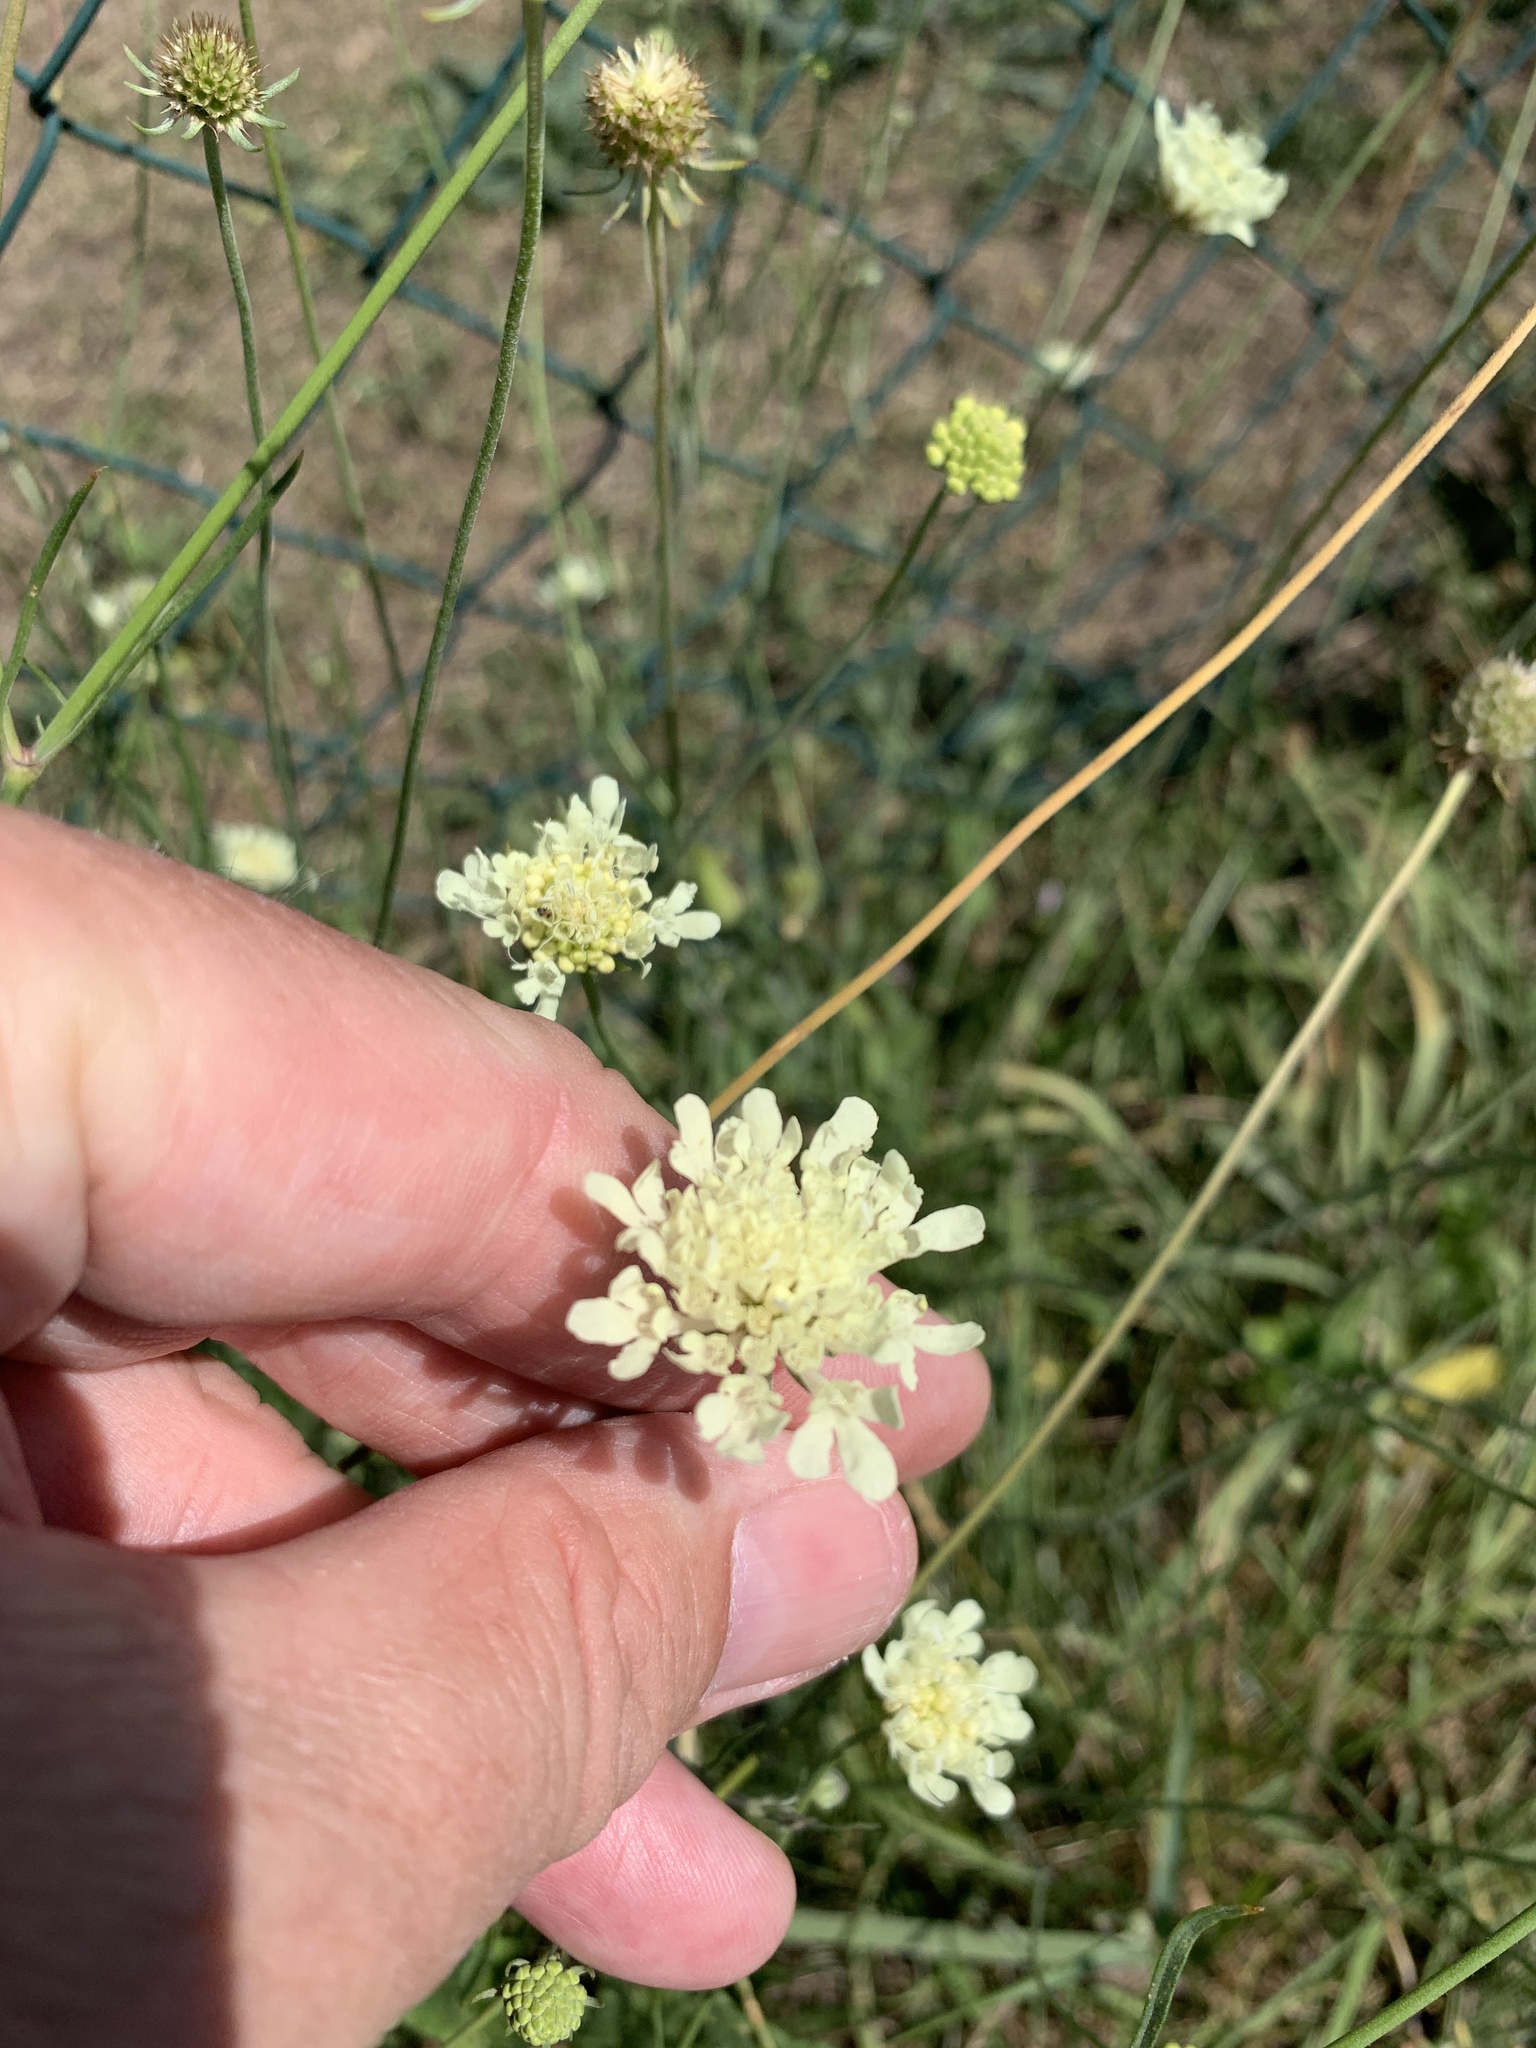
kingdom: Plantae
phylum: Tracheophyta
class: Magnoliopsida
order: Dipsacales
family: Caprifoliaceae
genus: Scabiosa
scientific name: Scabiosa ochroleuca
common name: Cream pincushions
